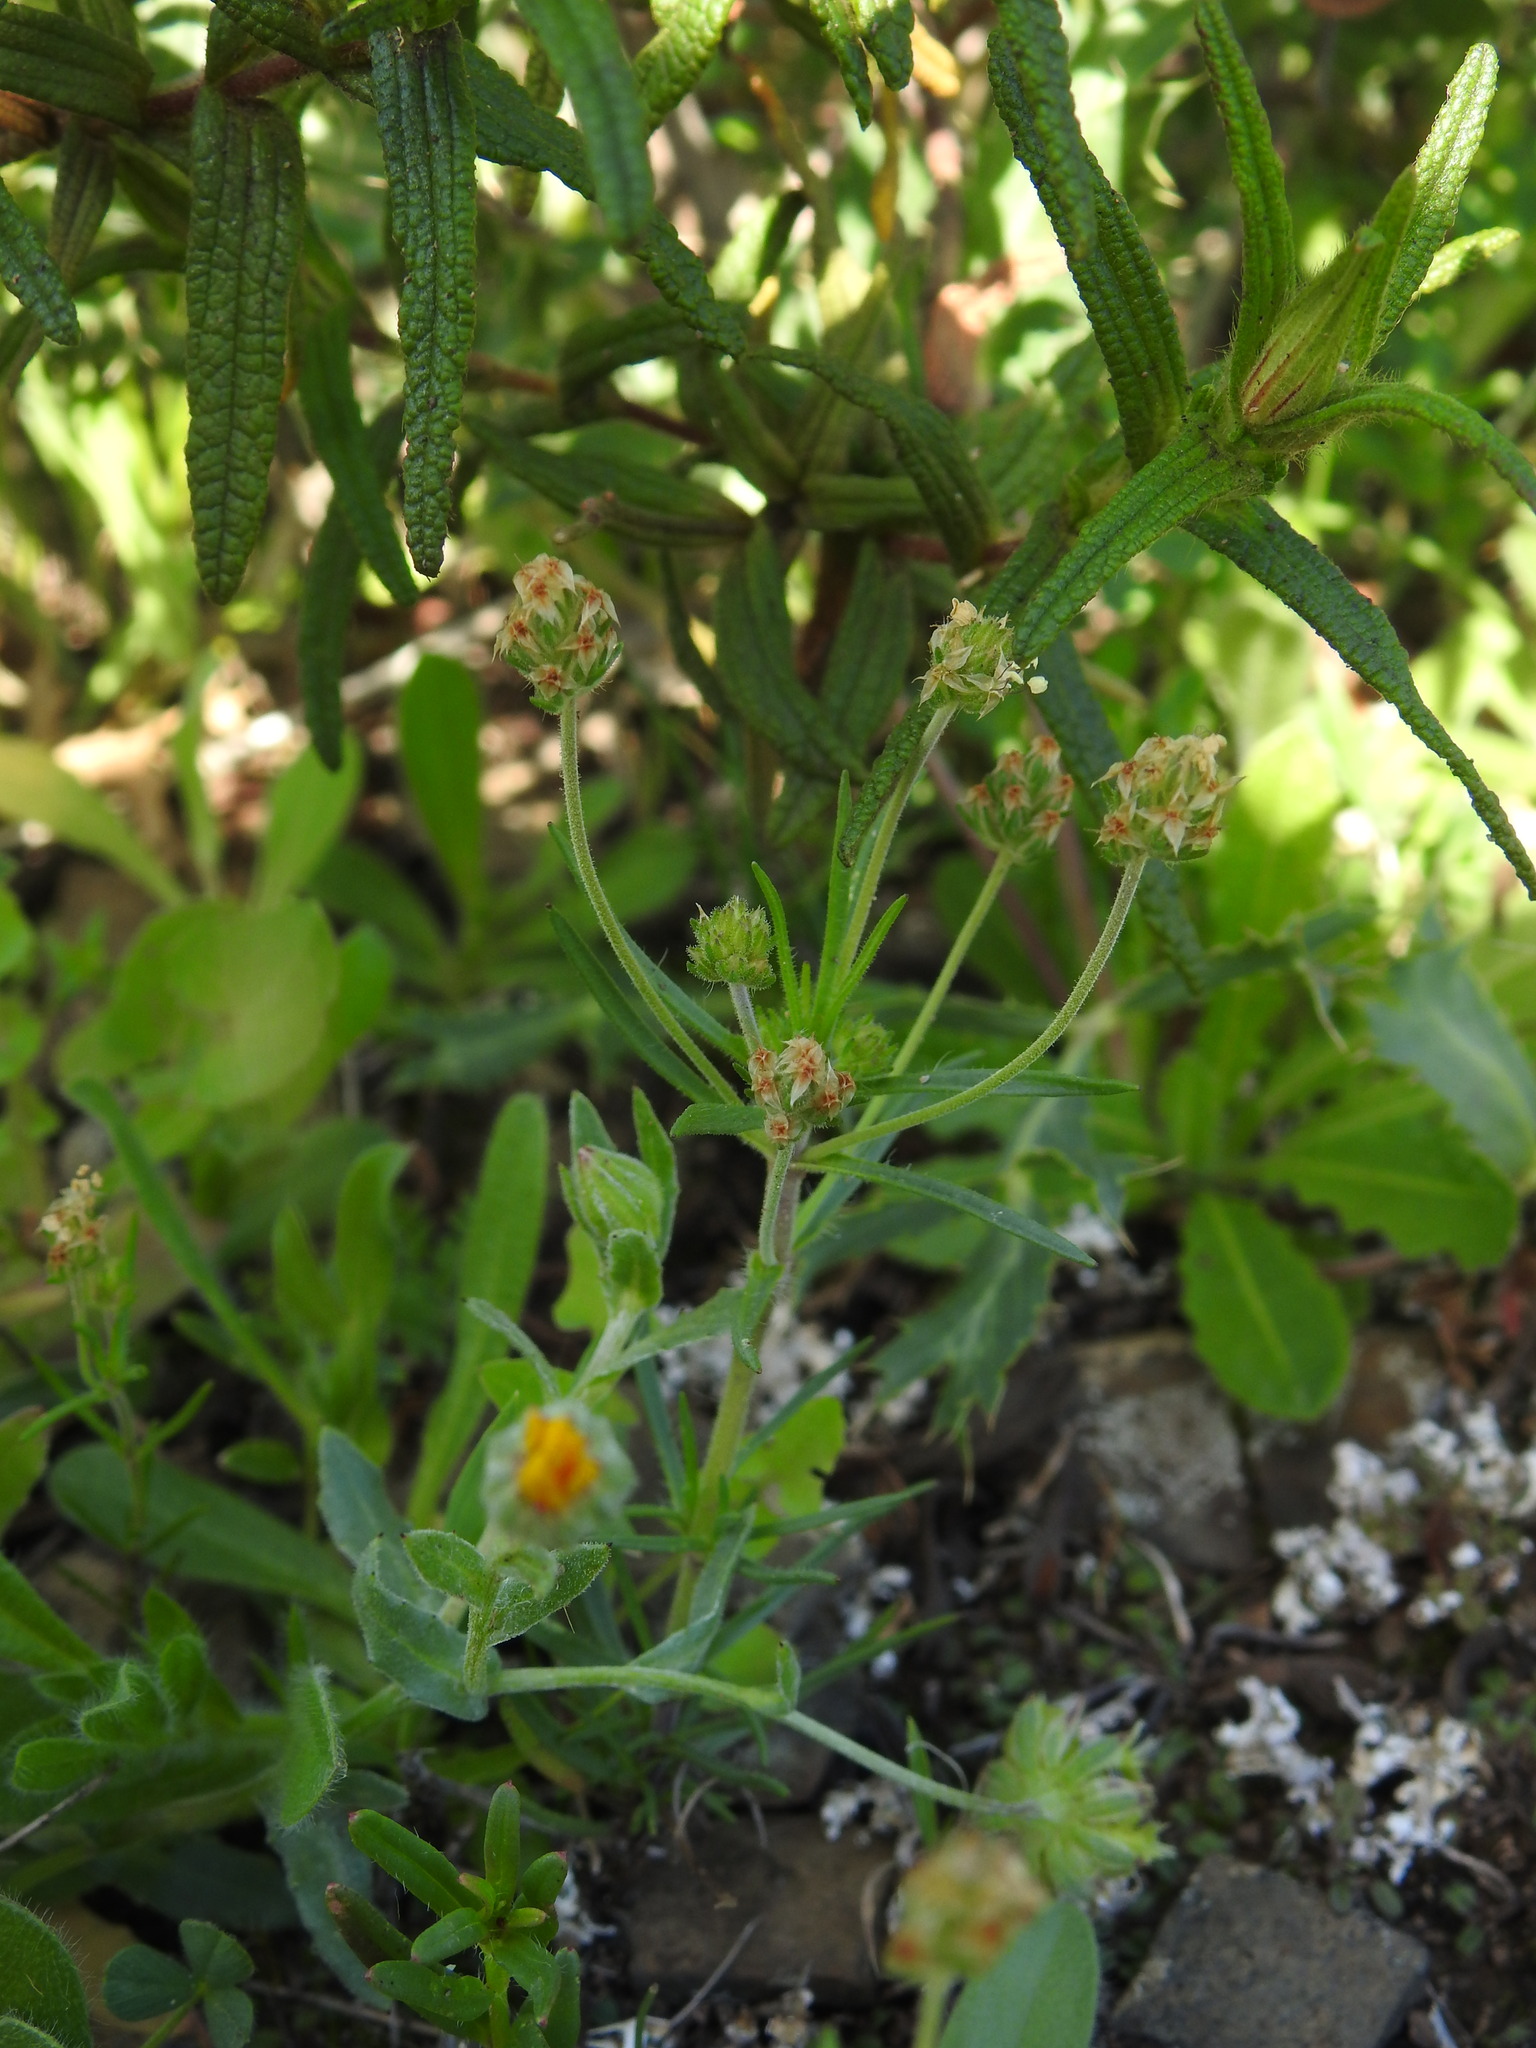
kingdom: Plantae
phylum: Tracheophyta
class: Magnoliopsida
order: Lamiales
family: Plantaginaceae
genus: Plantago
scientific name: Plantago afra
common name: Glandular plantain
